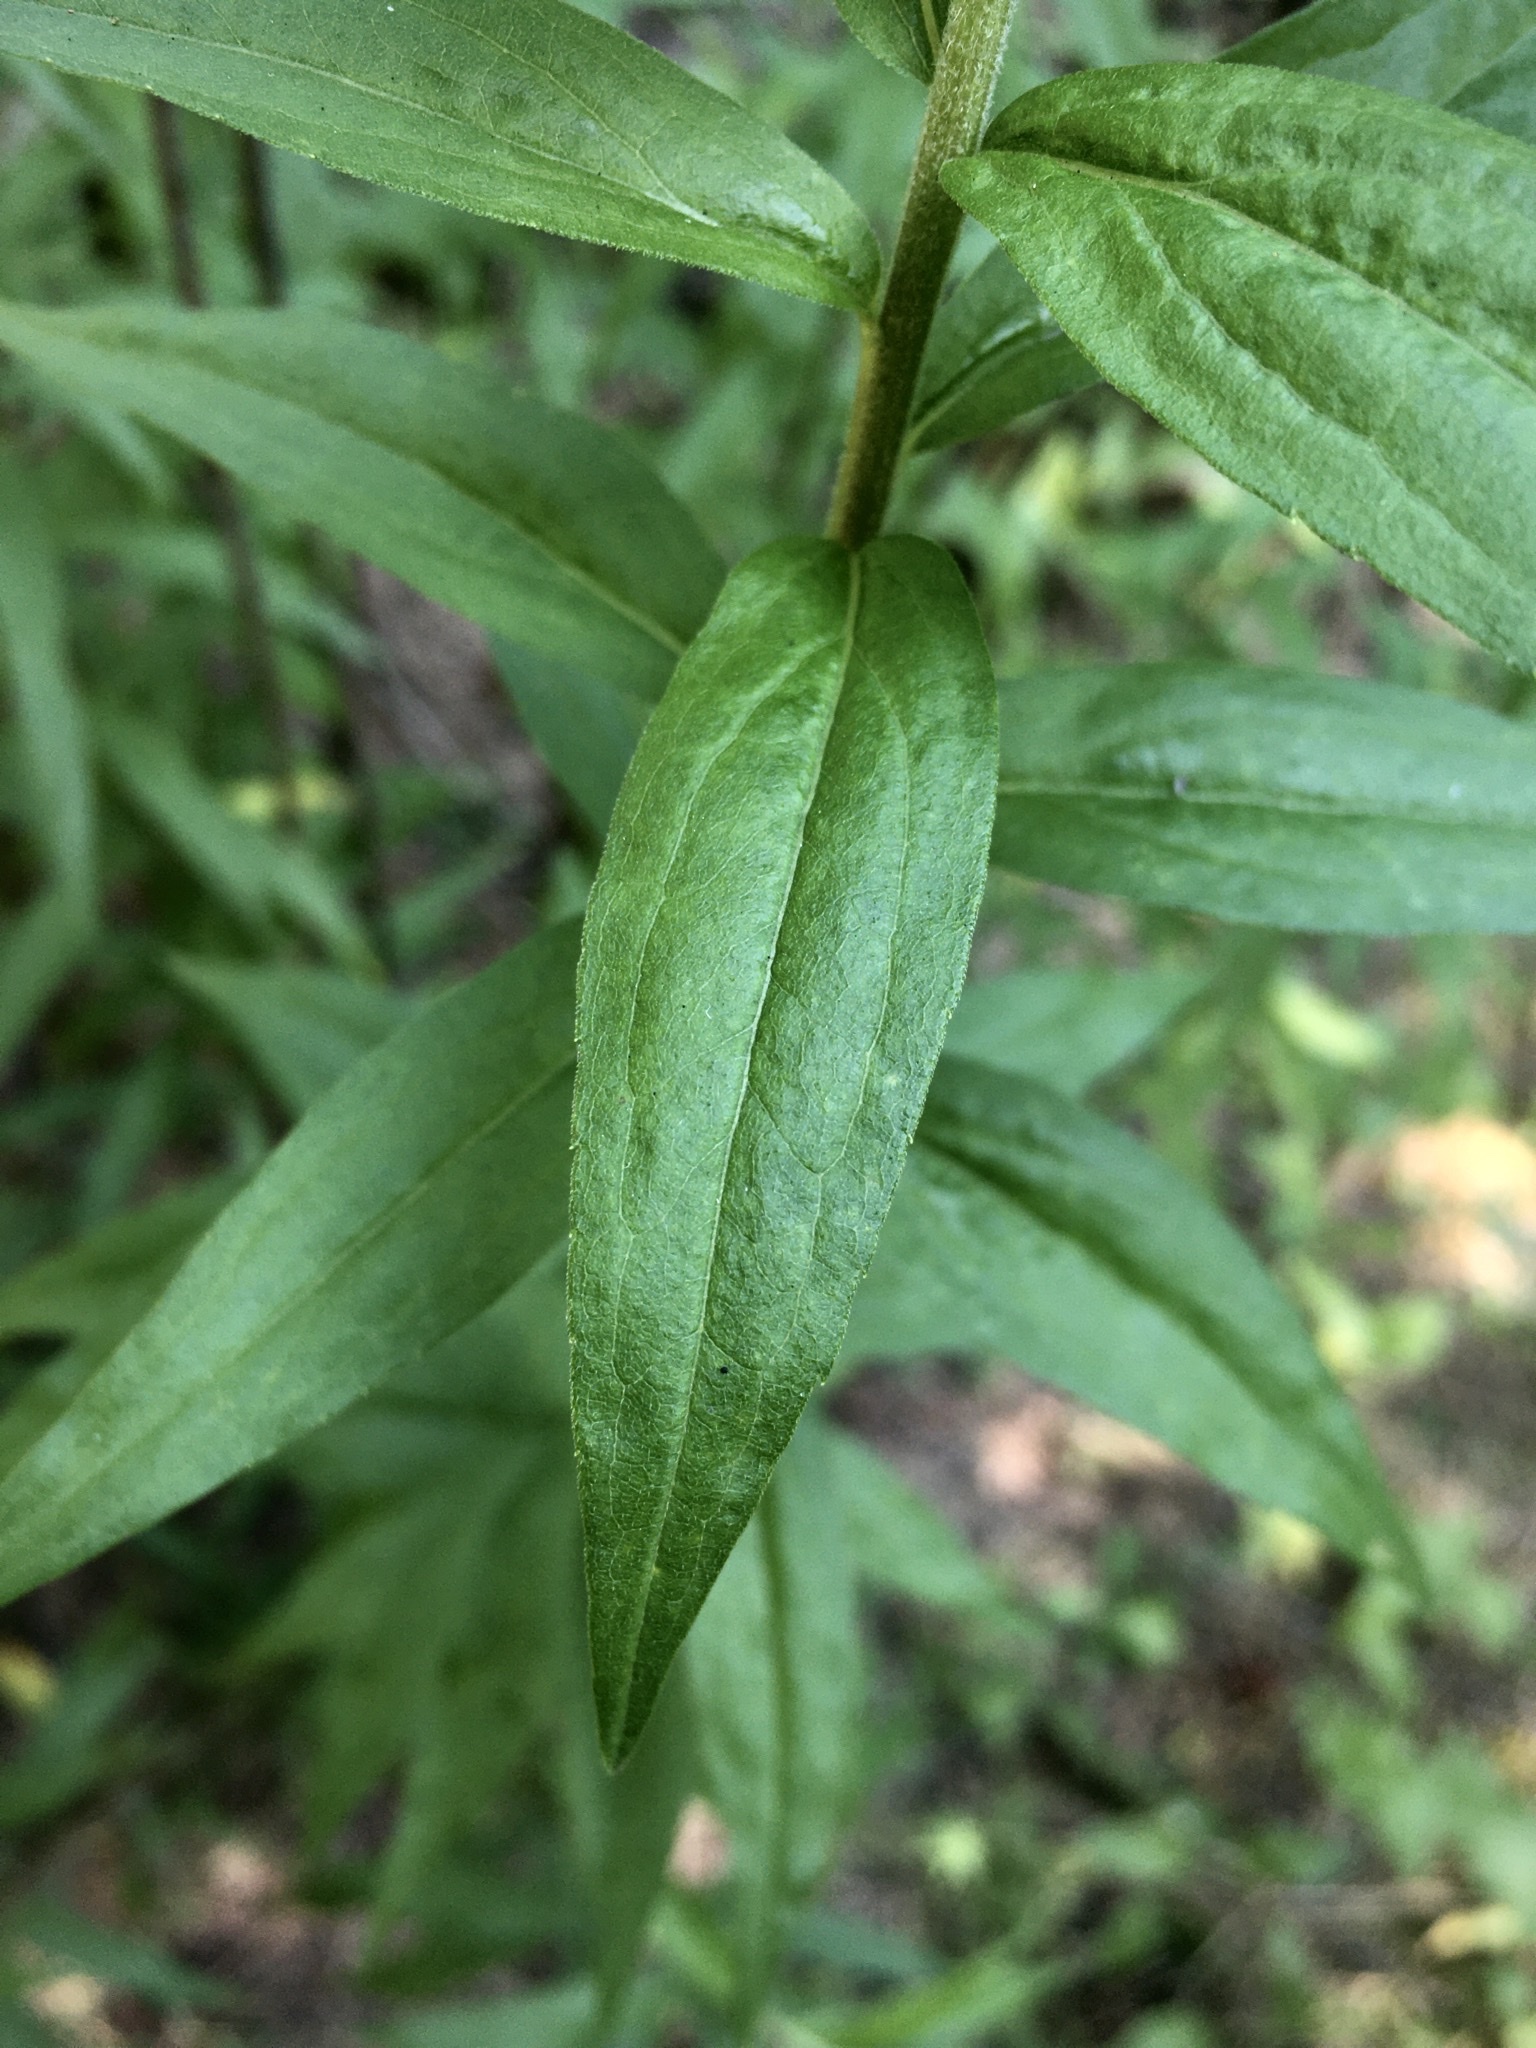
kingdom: Plantae
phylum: Tracheophyta
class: Magnoliopsida
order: Asterales
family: Asteraceae
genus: Solidago
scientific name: Solidago canadensis
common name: Canada goldenrod
